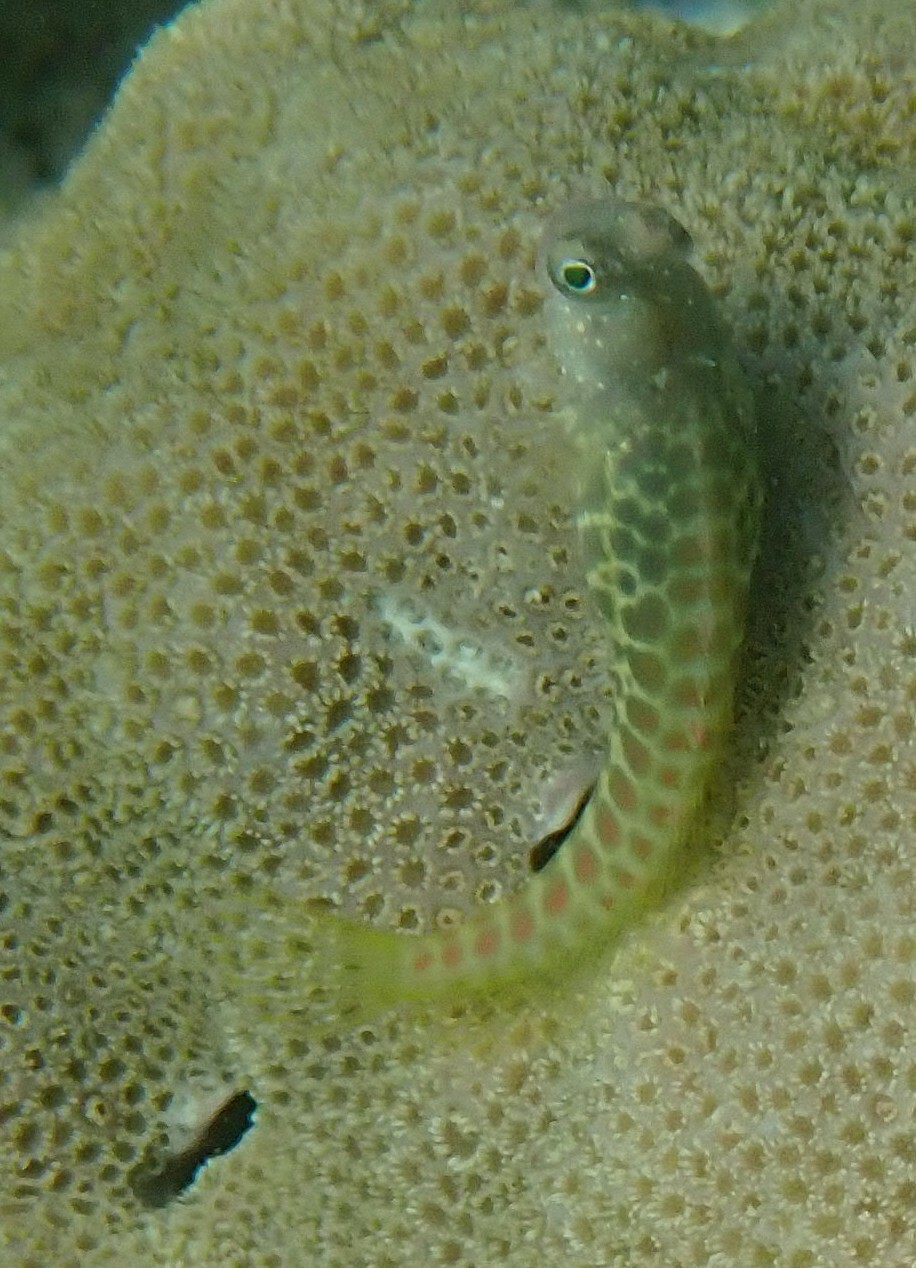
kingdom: Animalia
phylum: Chordata
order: Perciformes
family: Blenniidae
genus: Salarias
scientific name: Salarias segmentatus
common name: Segmented blenny
